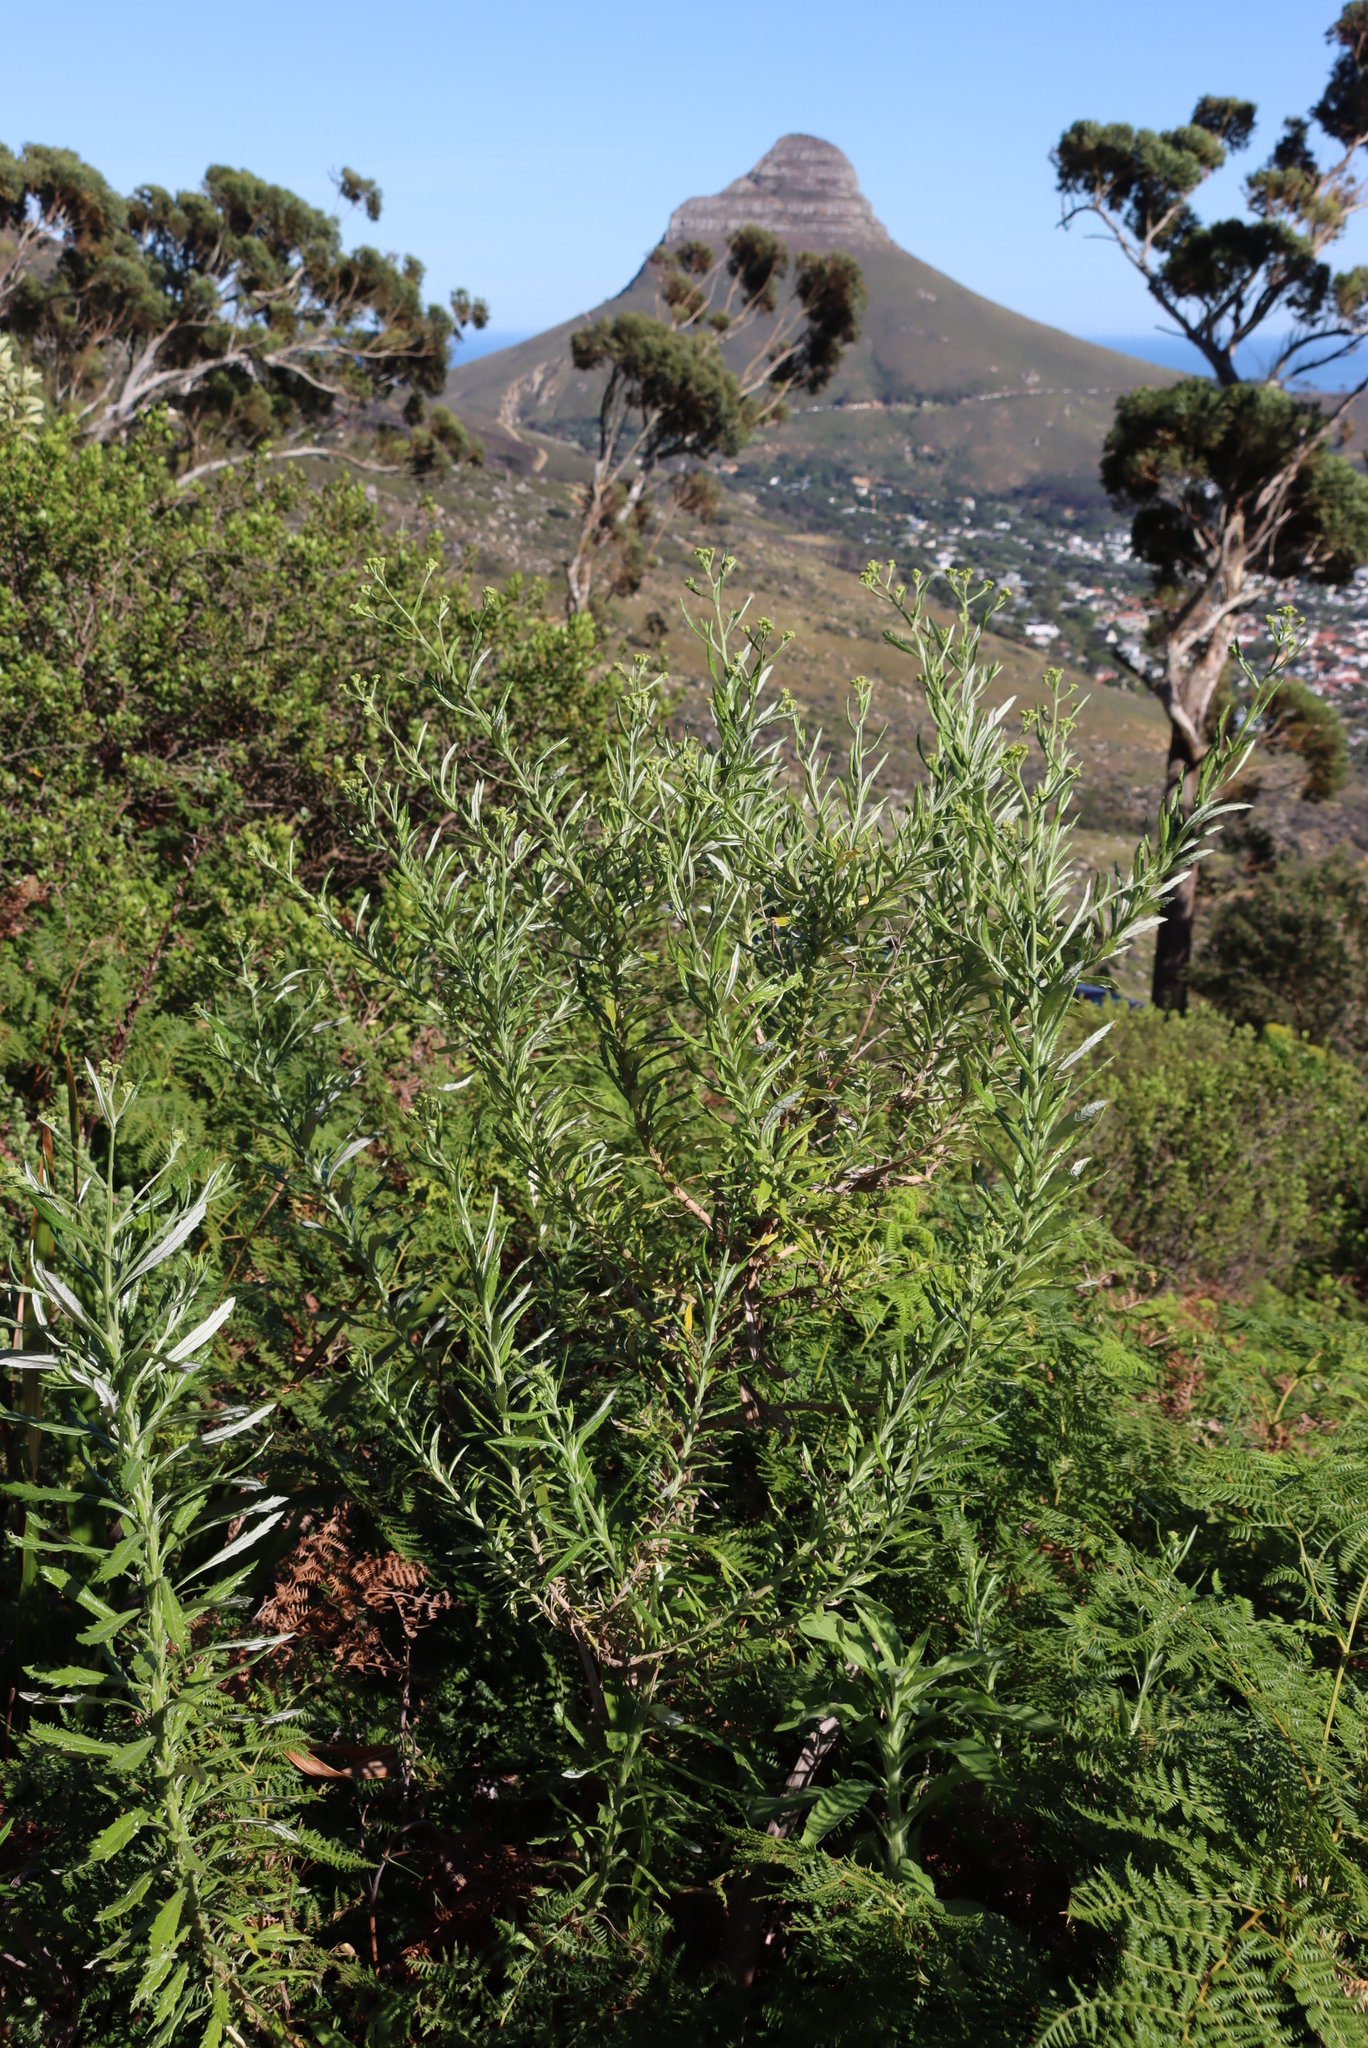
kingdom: Plantae
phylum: Tracheophyta
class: Magnoliopsida
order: Asterales
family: Asteraceae
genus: Senecio
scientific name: Senecio pterophorus
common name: Shoddy ragwort
